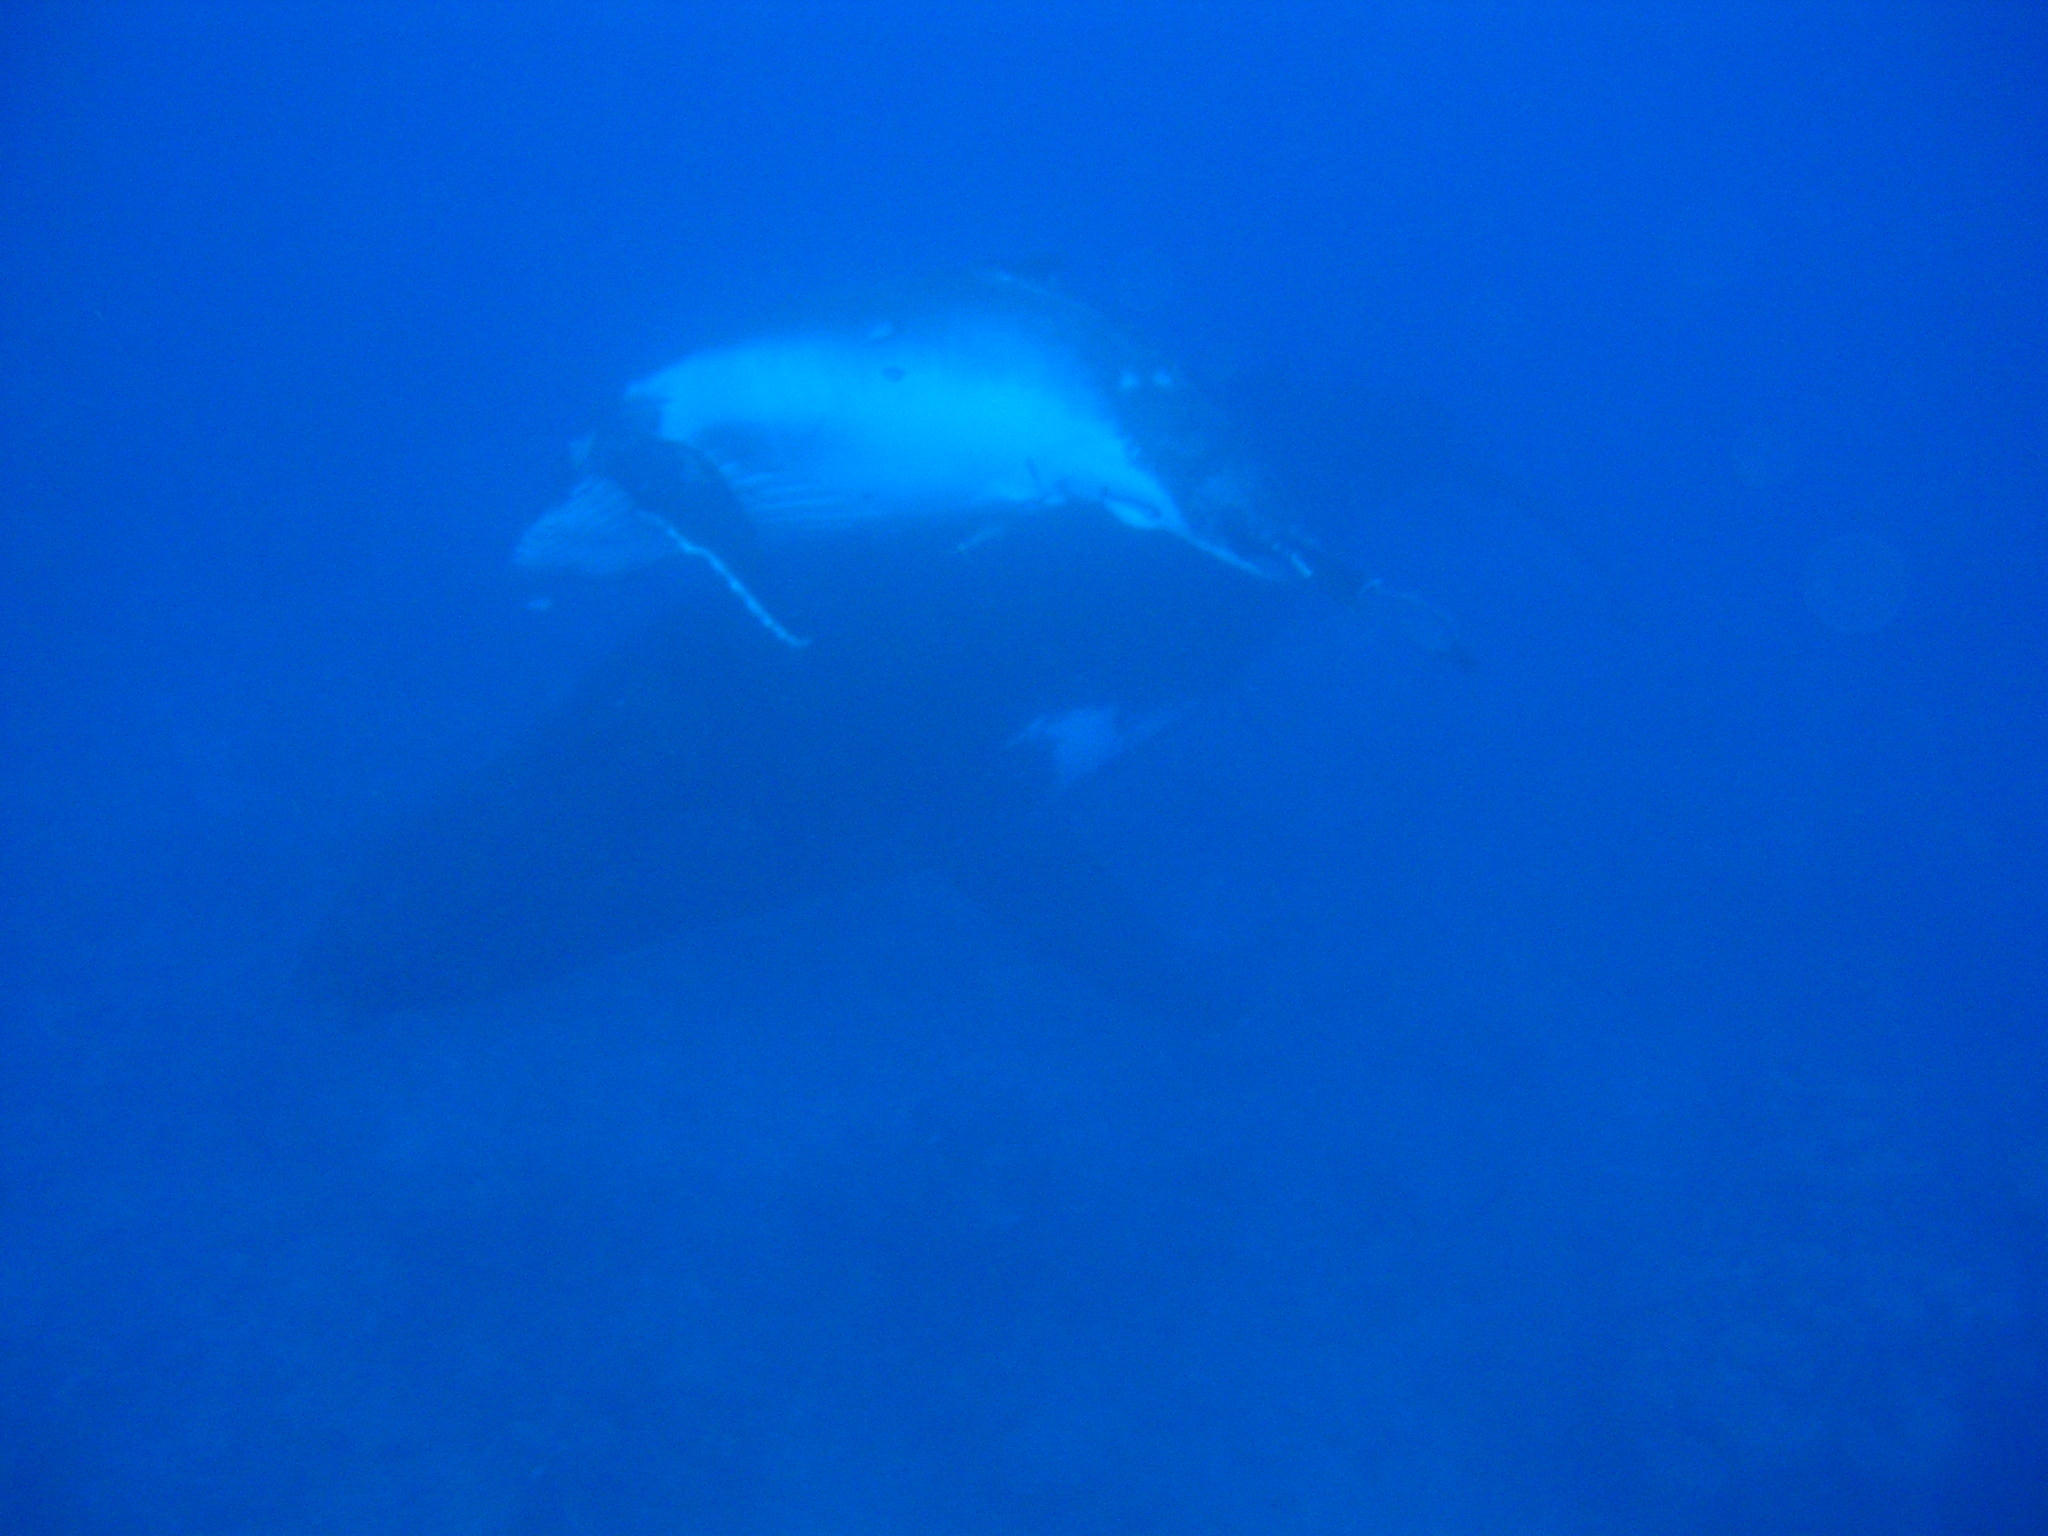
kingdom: Animalia
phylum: Chordata
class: Mammalia
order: Cetacea
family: Balaenopteridae
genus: Megaptera
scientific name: Megaptera novaeangliae
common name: Humpback whale
